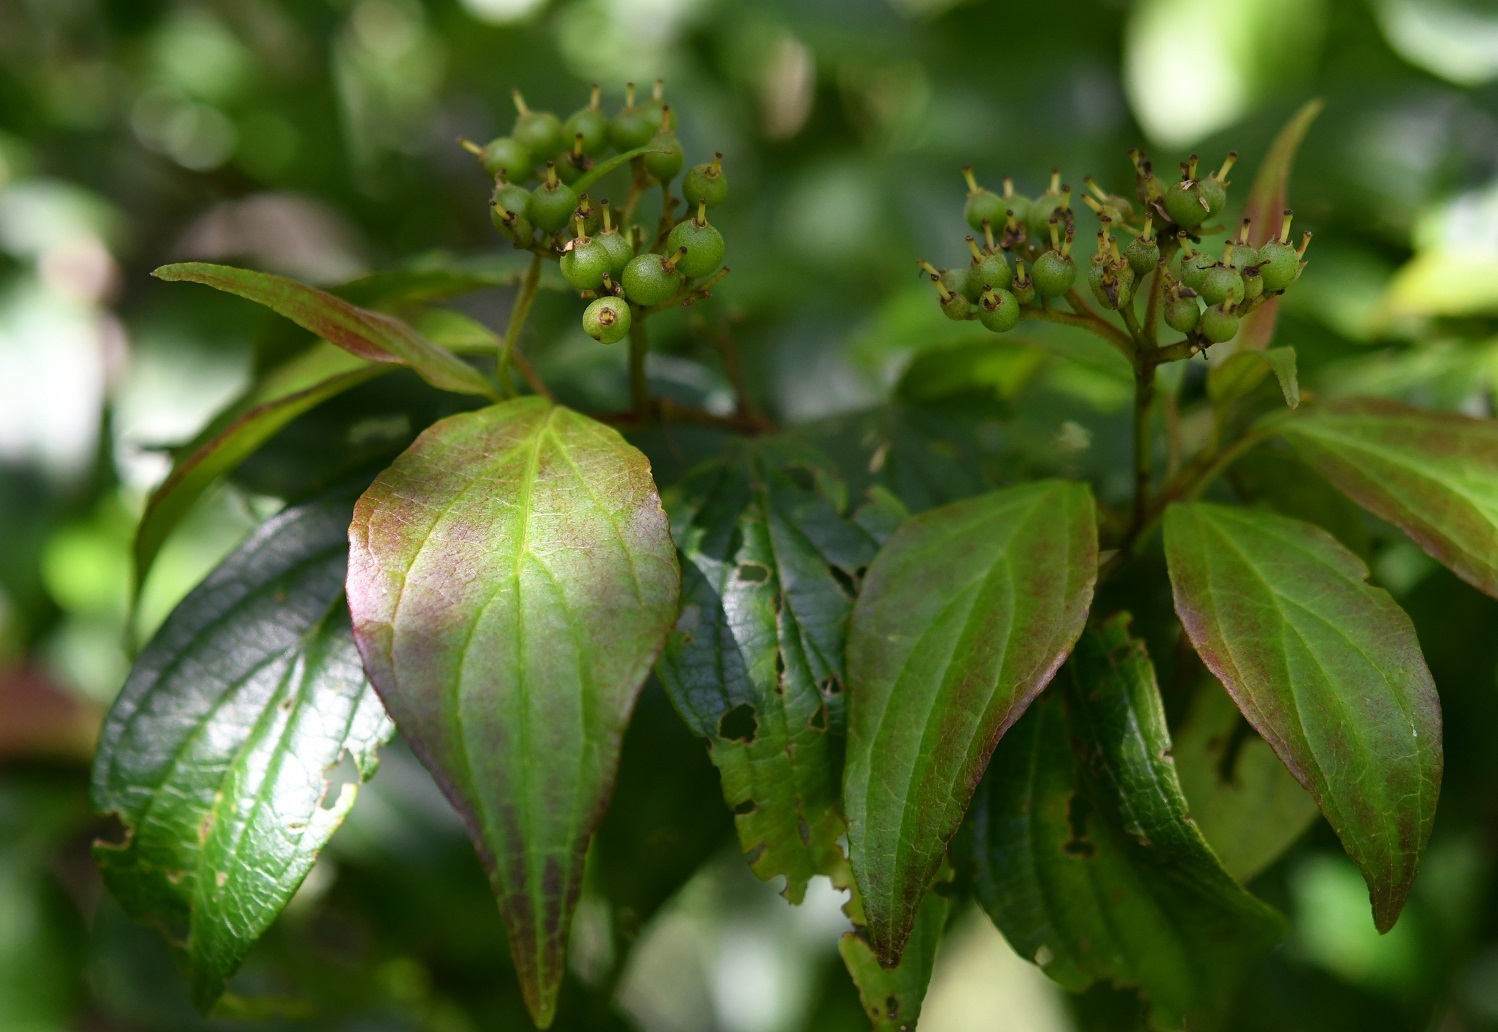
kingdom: Plantae
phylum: Tracheophyta
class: Magnoliopsida
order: Cornales
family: Cornaceae
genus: Cornus
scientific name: Cornus excelsa
